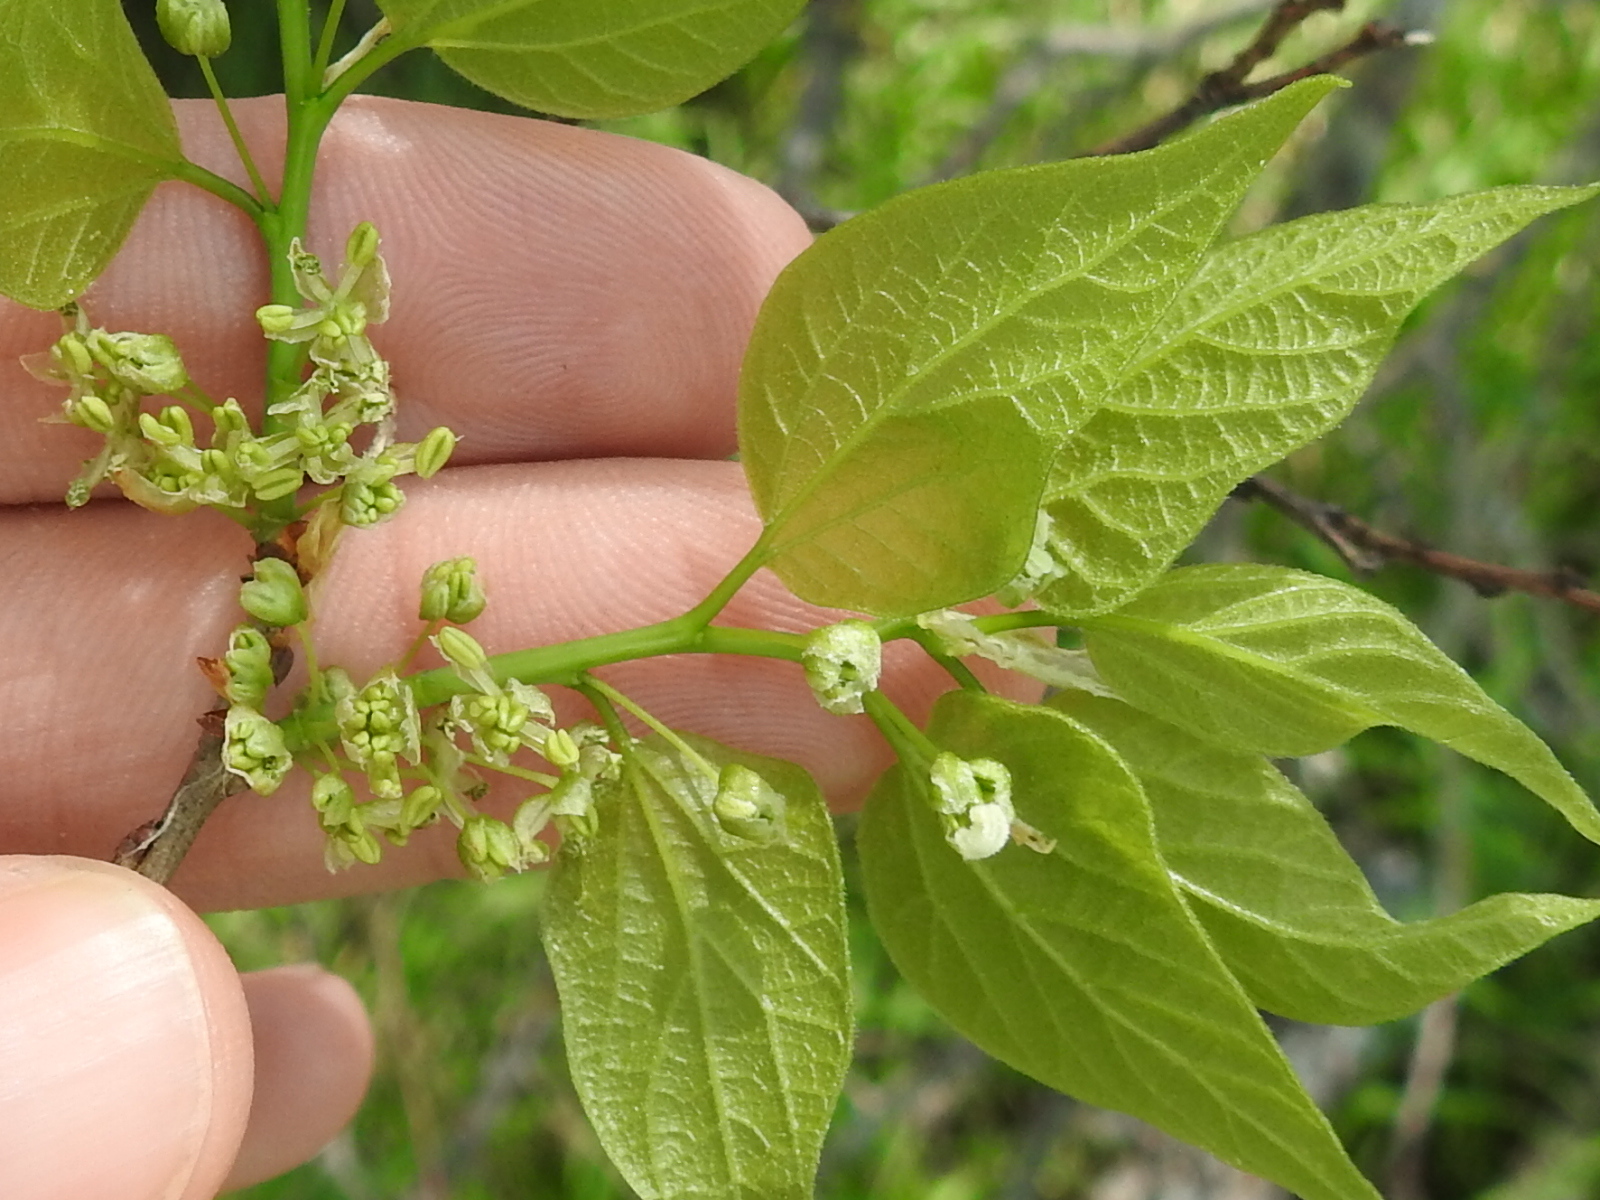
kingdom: Plantae
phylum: Tracheophyta
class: Magnoliopsida
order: Rosales
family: Cannabaceae
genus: Celtis
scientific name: Celtis laevigata
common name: Sugarberry
